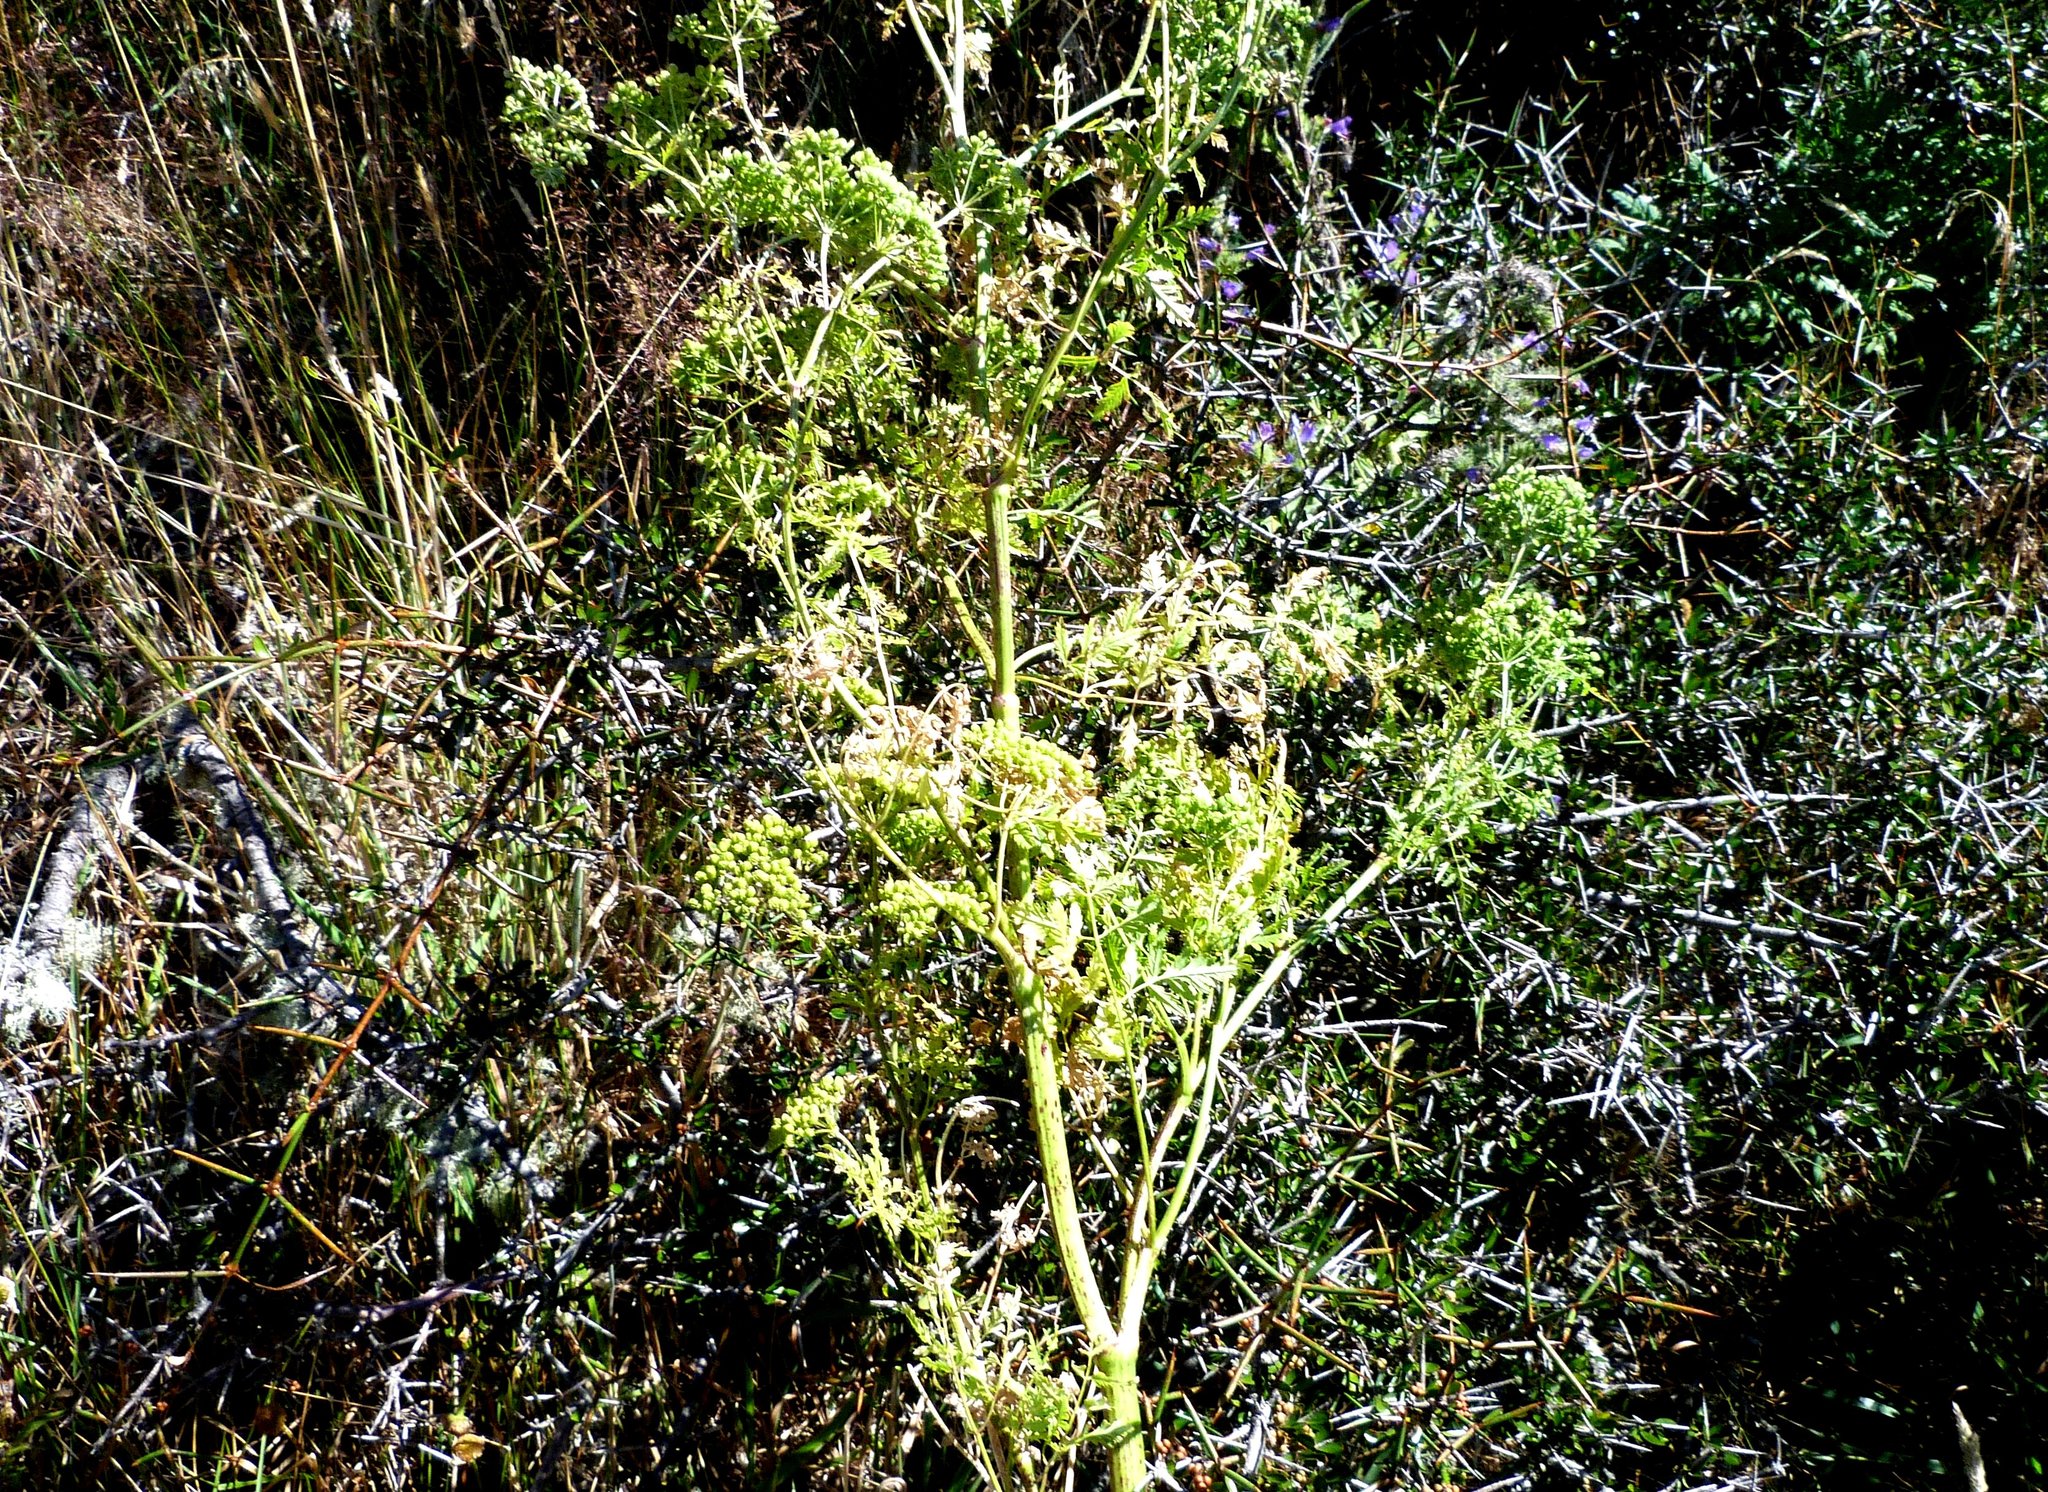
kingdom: Plantae
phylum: Tracheophyta
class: Magnoliopsida
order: Apiales
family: Apiaceae
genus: Conium
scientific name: Conium maculatum
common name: Hemlock
